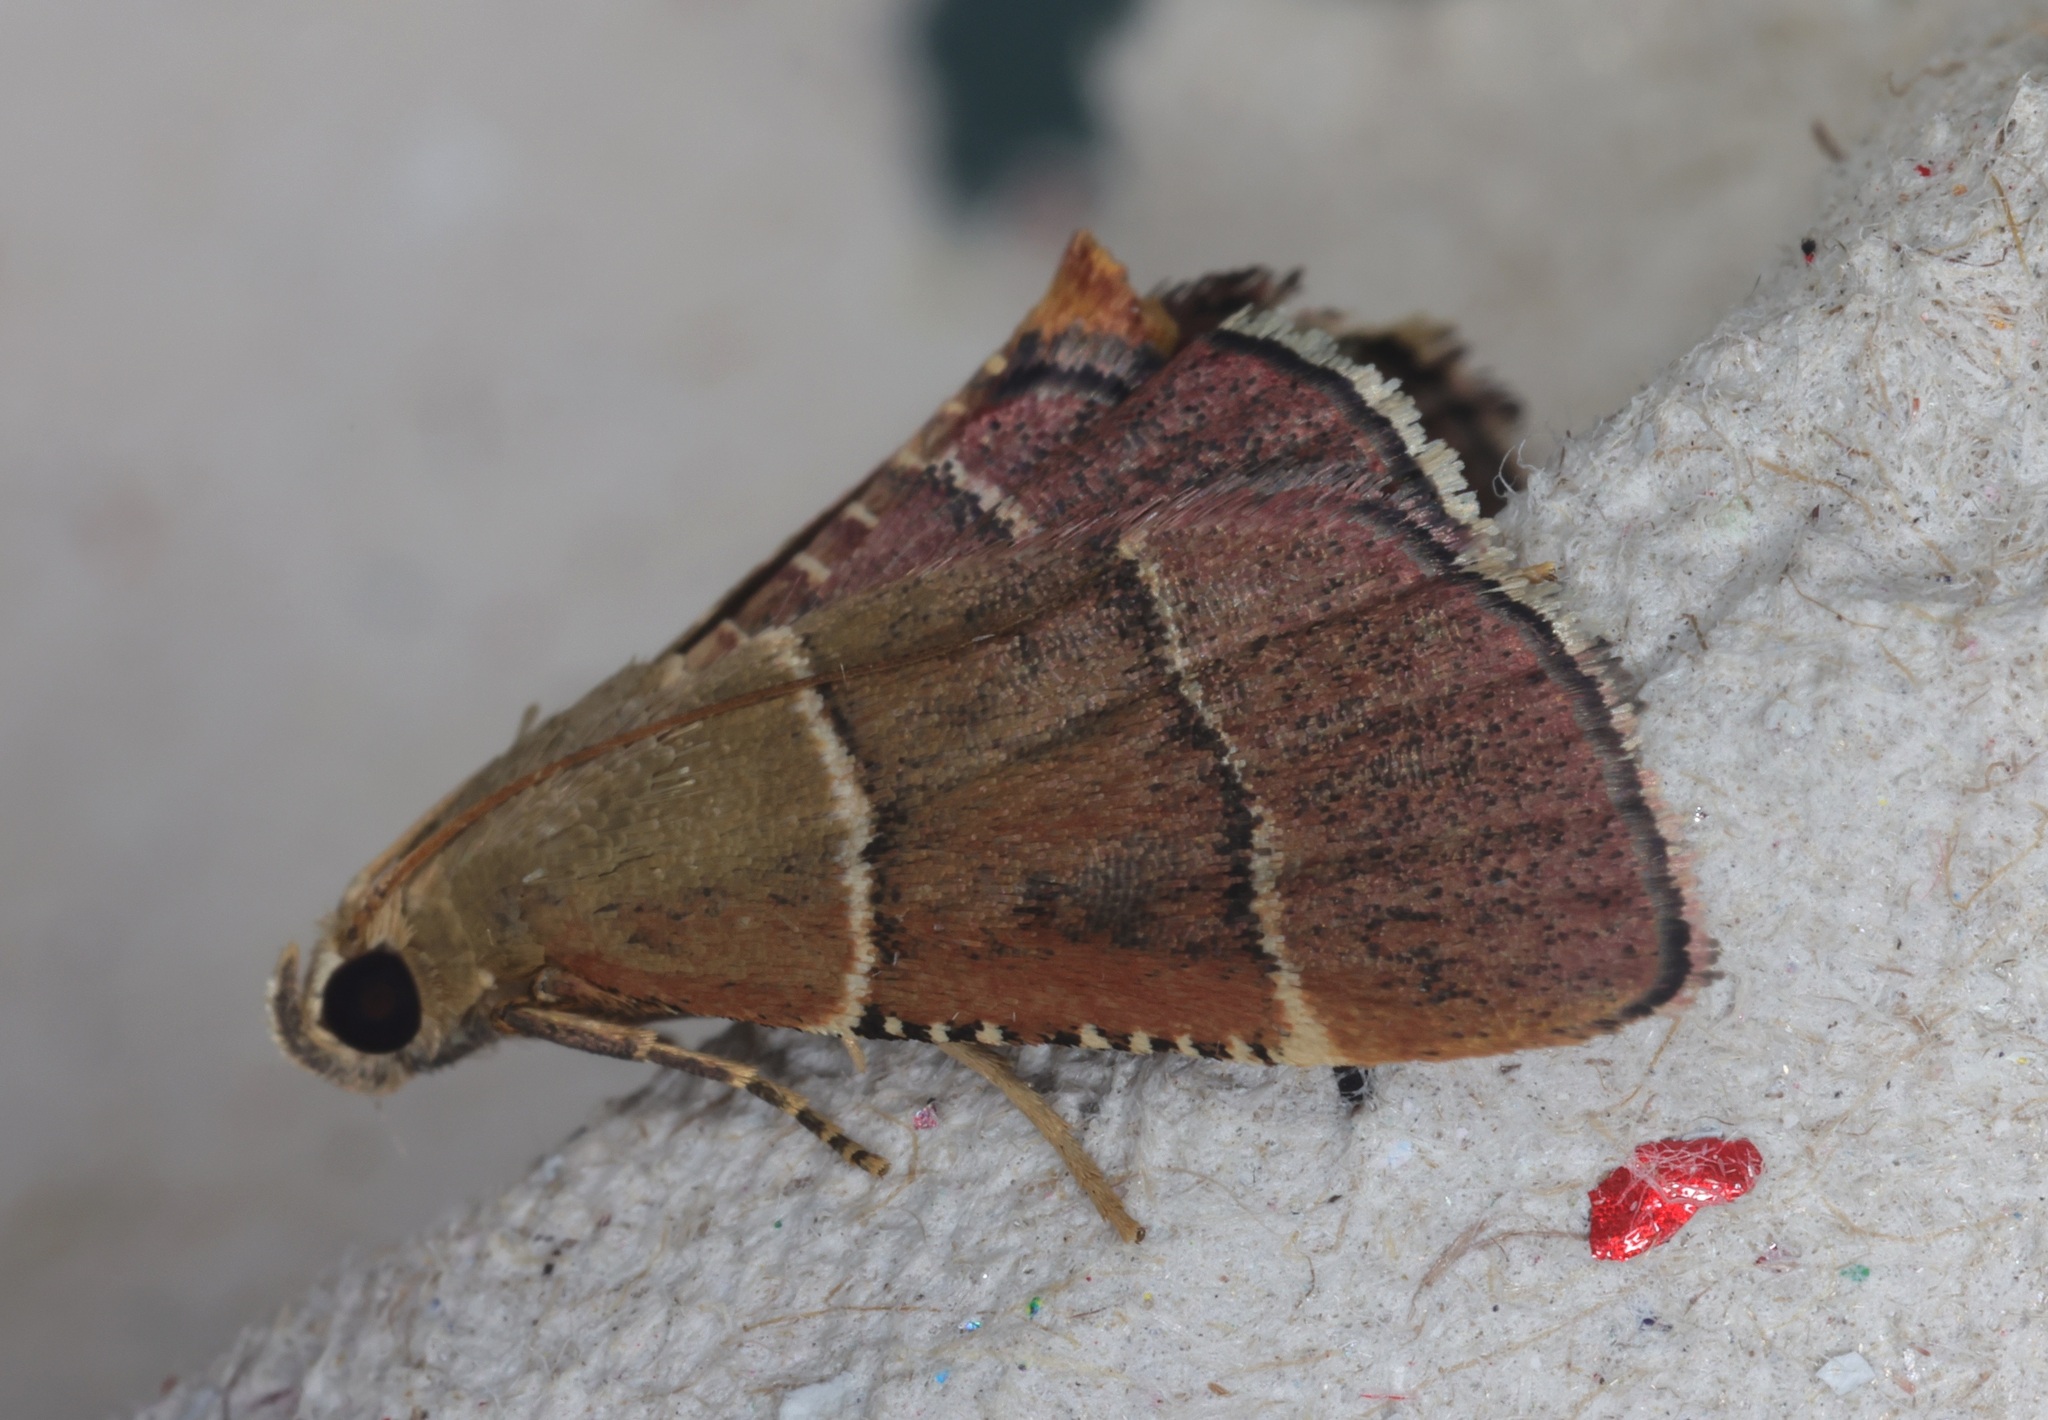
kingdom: Animalia
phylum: Arthropoda
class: Insecta
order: Lepidoptera
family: Pyralidae
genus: Stemmatophora
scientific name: Stemmatophora flavicaput
